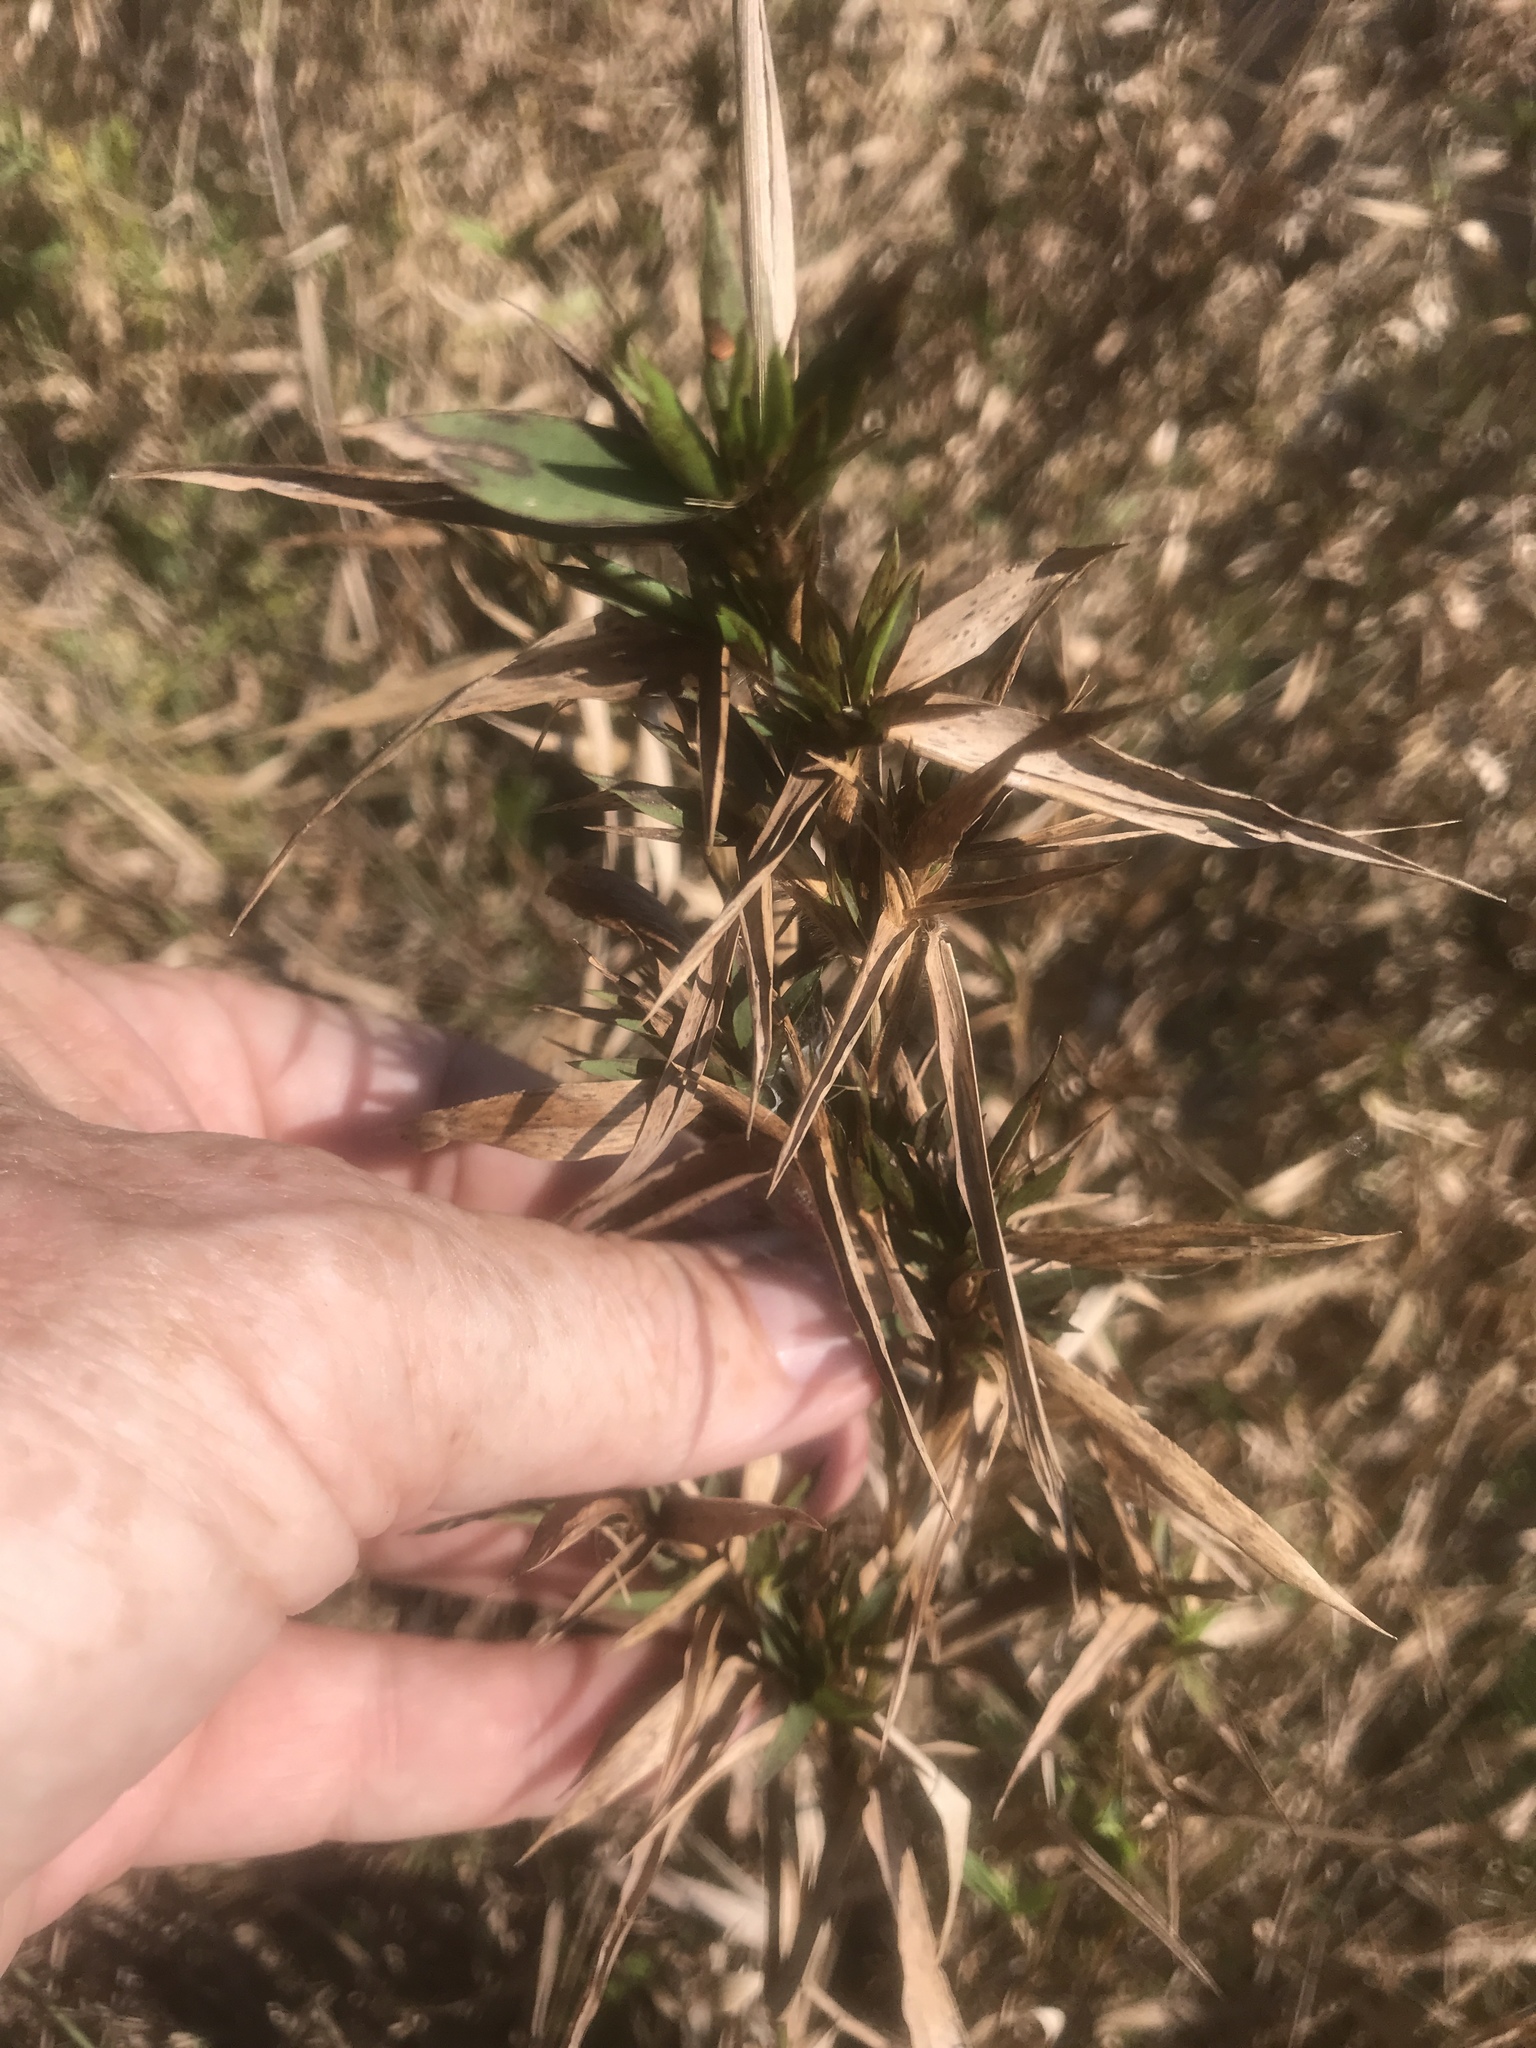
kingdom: Plantae
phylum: Tracheophyta
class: Liliopsida
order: Poales
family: Poaceae
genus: Dichanthelium
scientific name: Dichanthelium scabriusculum
